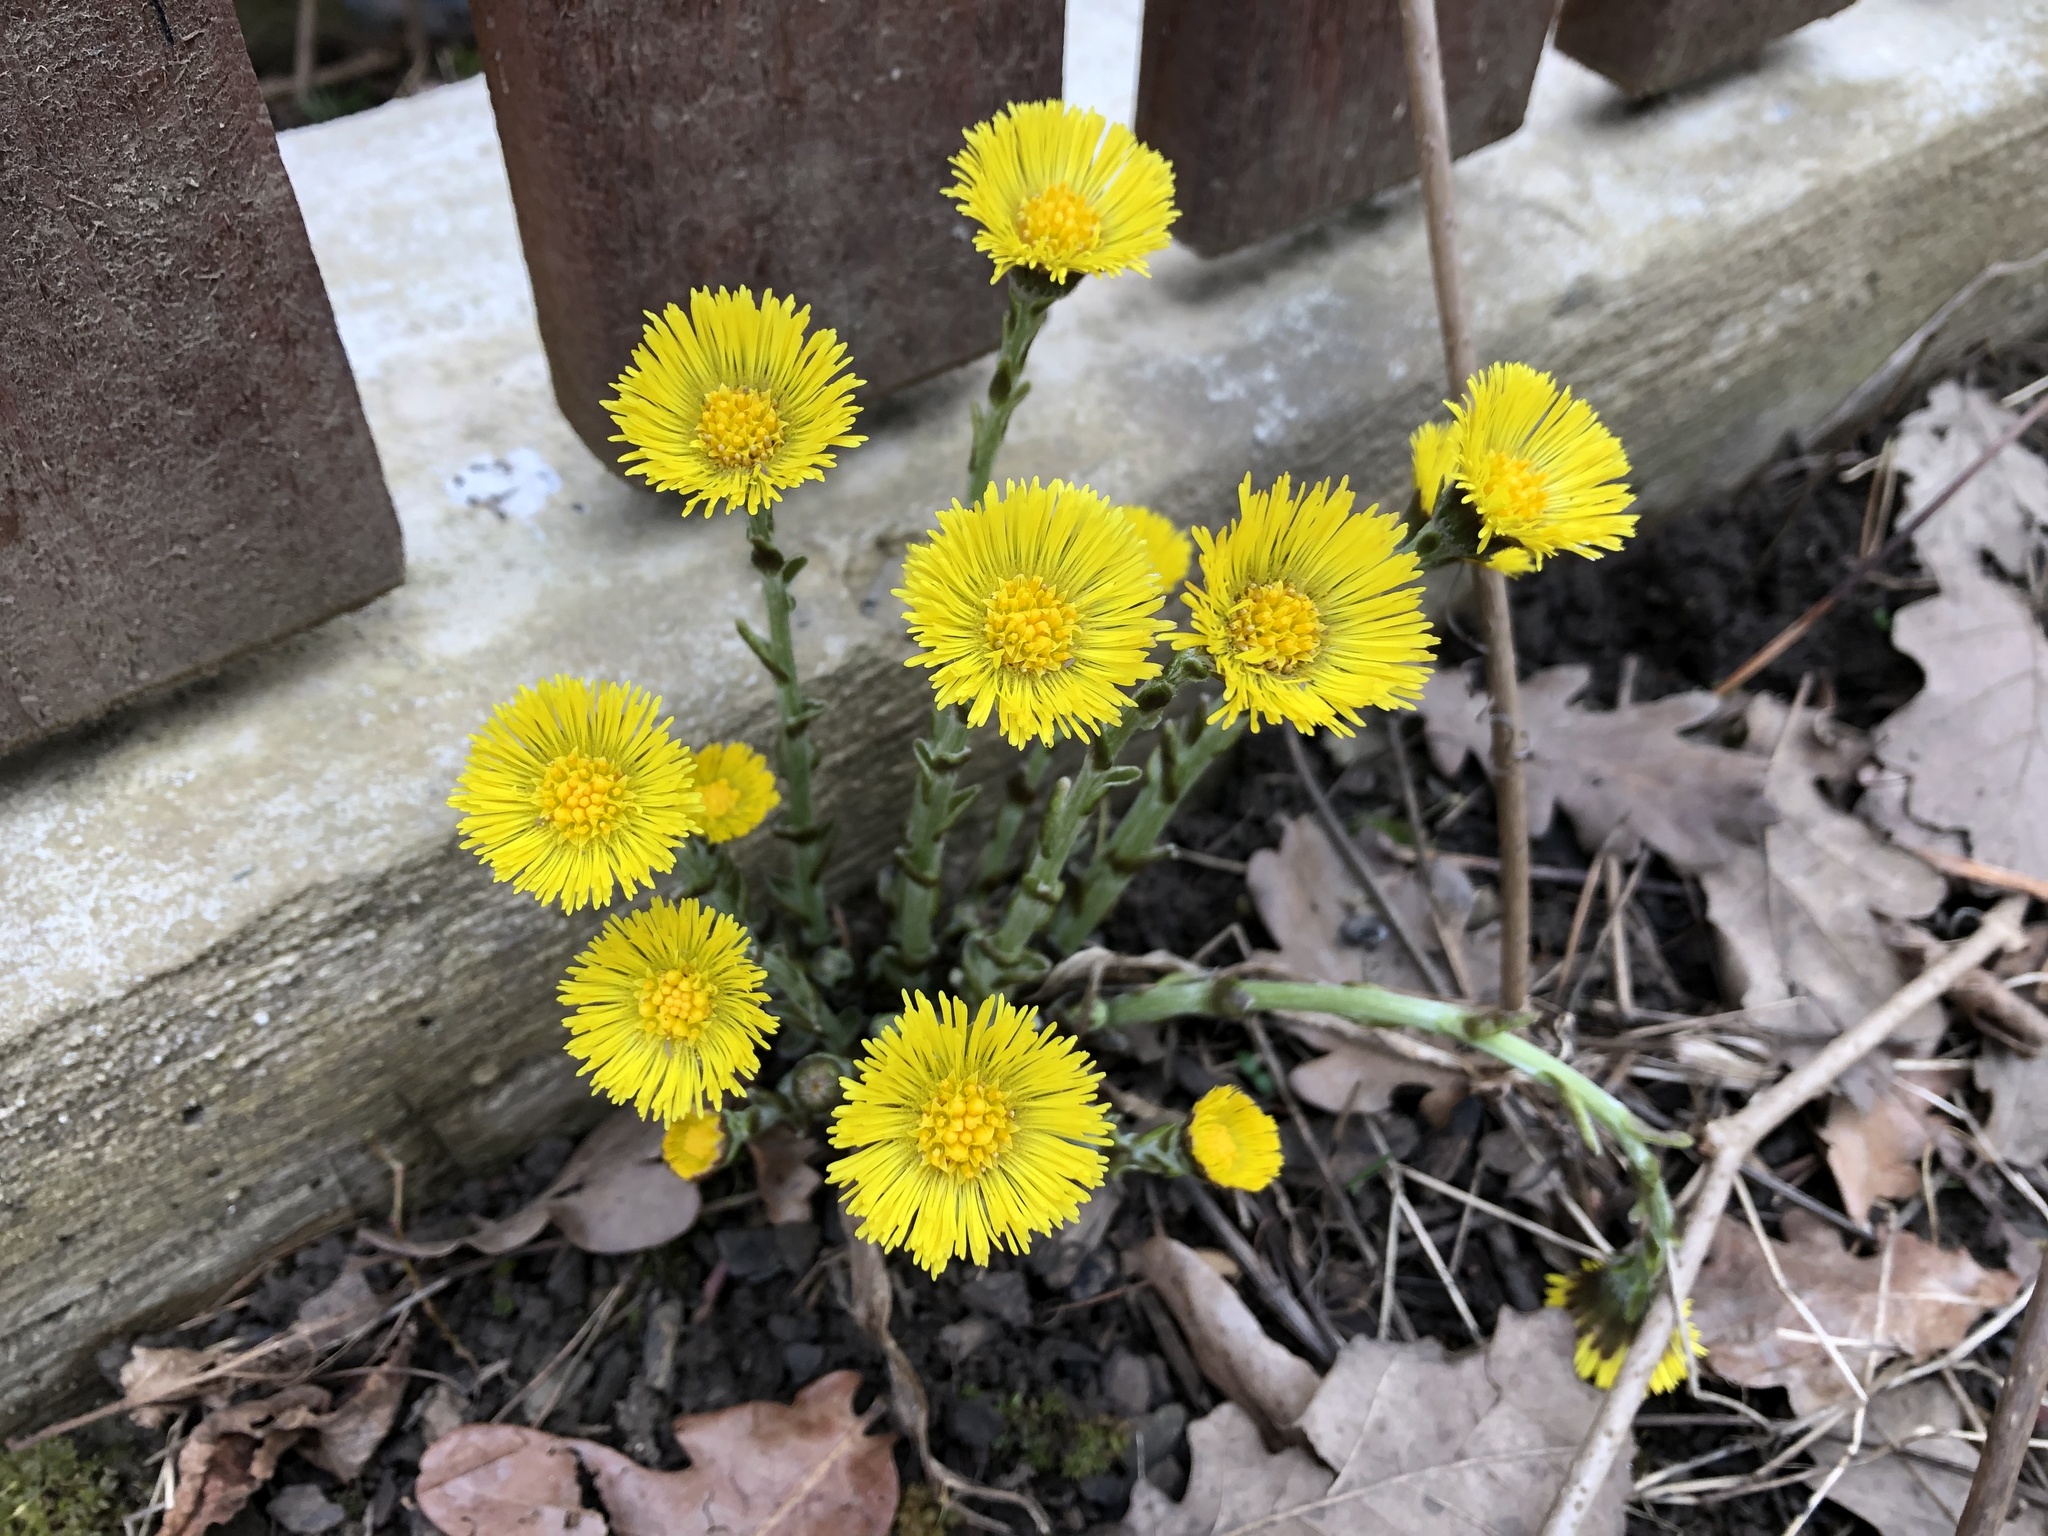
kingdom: Plantae
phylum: Tracheophyta
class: Magnoliopsida
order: Asterales
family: Asteraceae
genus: Tussilago
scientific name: Tussilago farfara
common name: Coltsfoot
